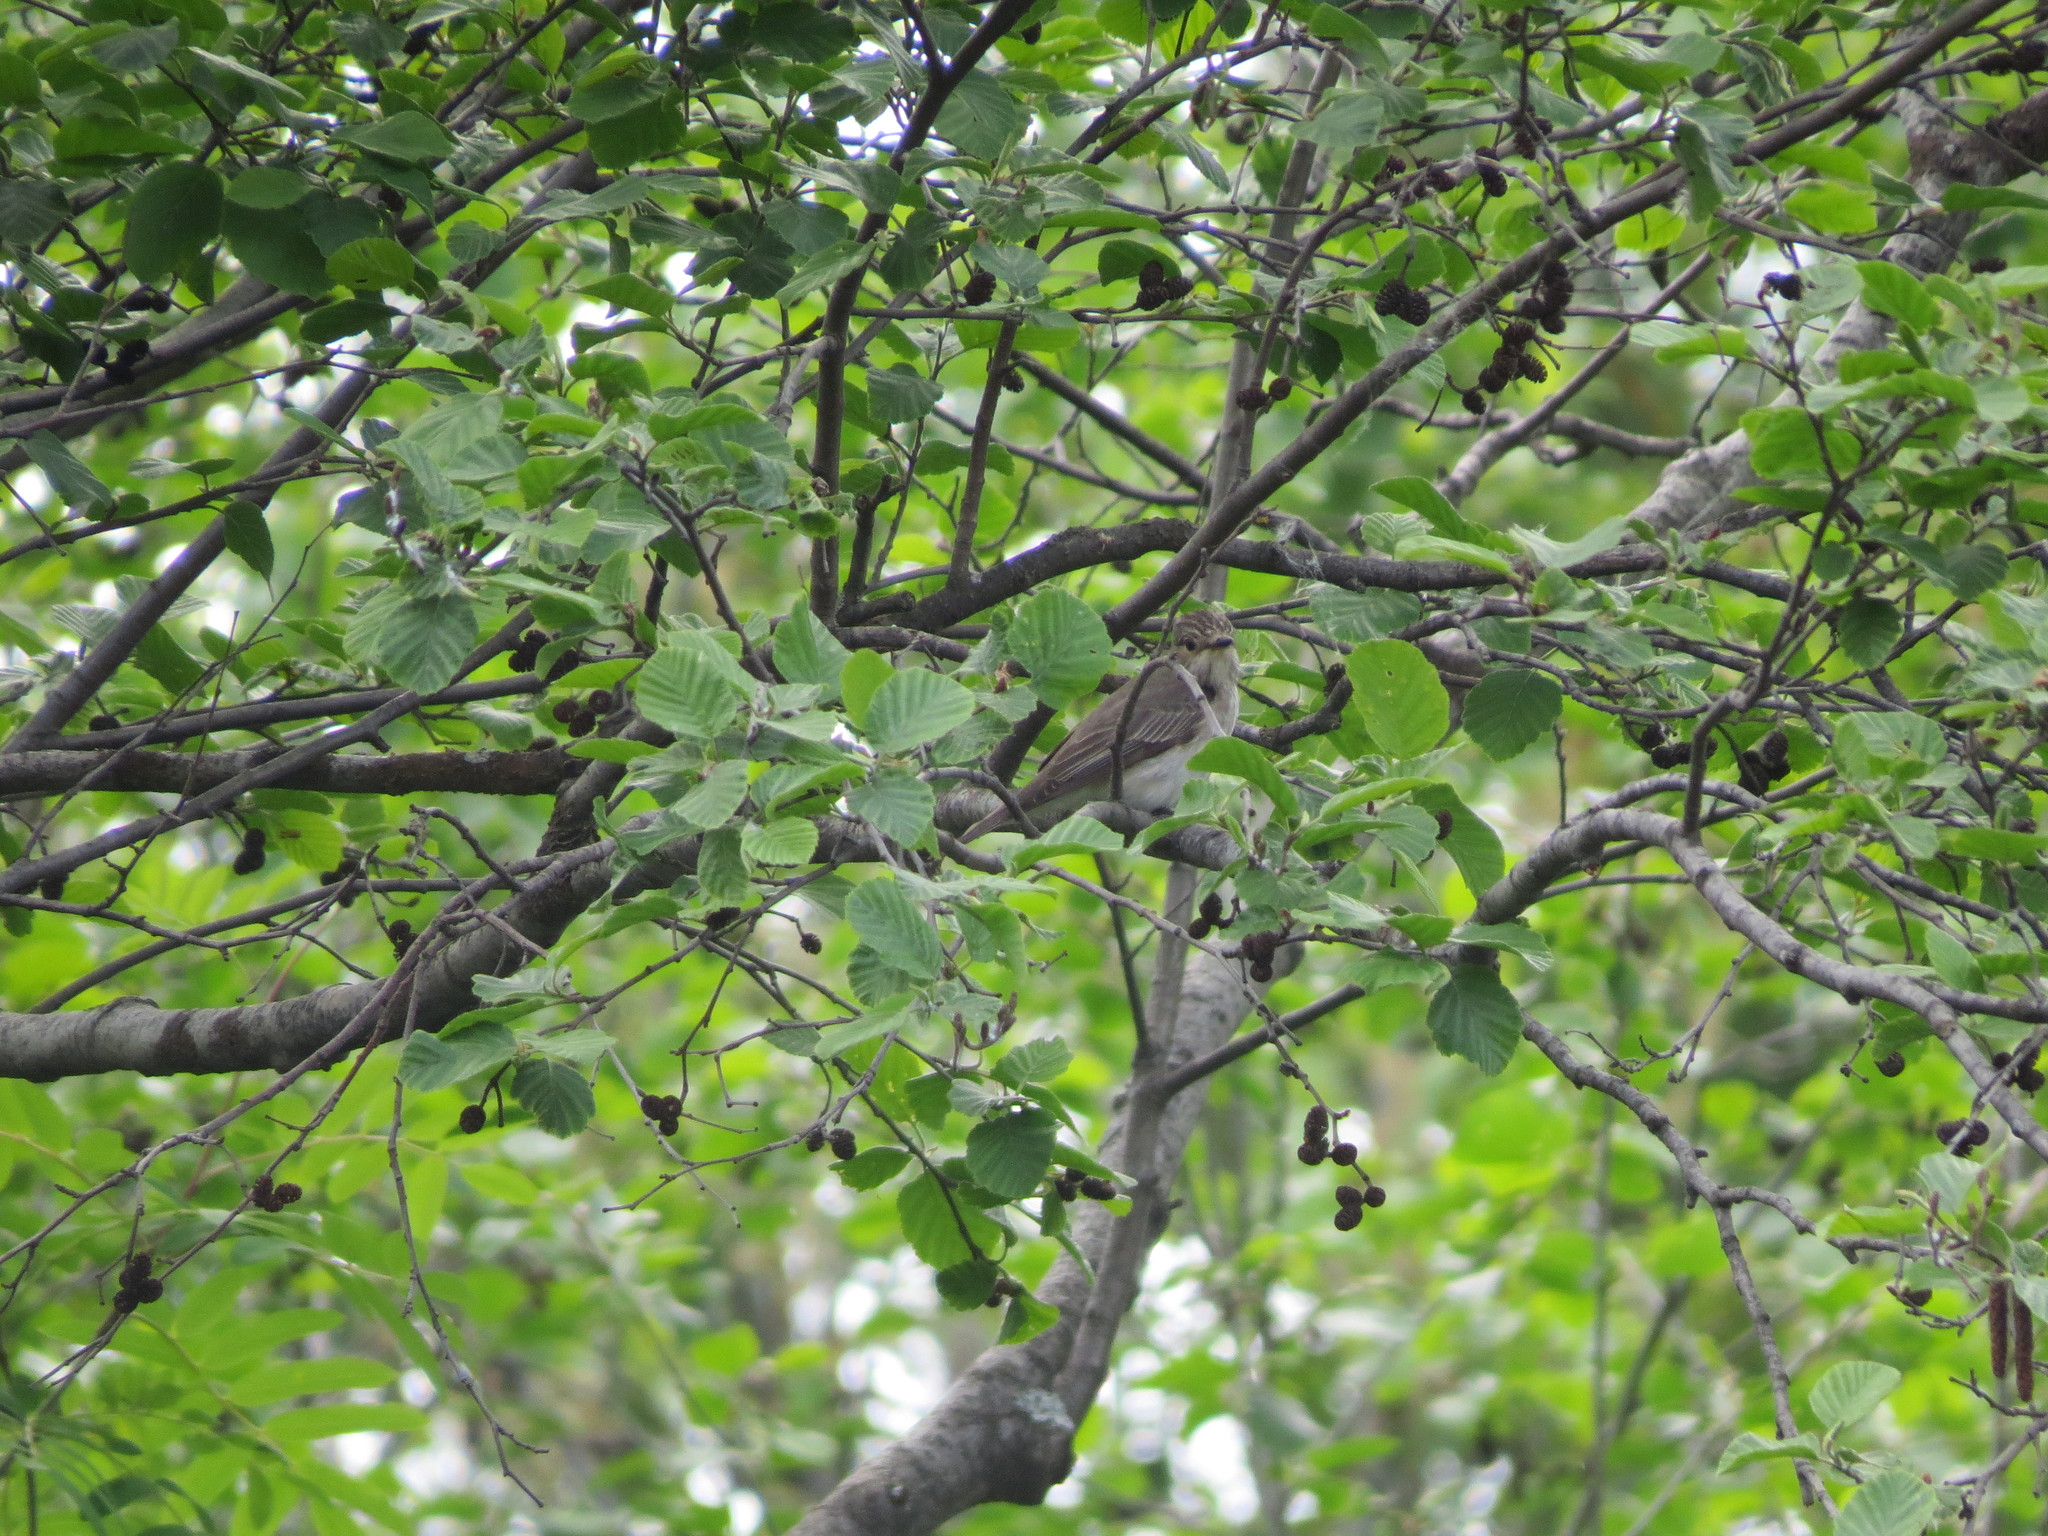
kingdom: Animalia
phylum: Chordata
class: Aves
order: Passeriformes
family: Muscicapidae
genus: Muscicapa
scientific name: Muscicapa striata
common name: Spotted flycatcher
